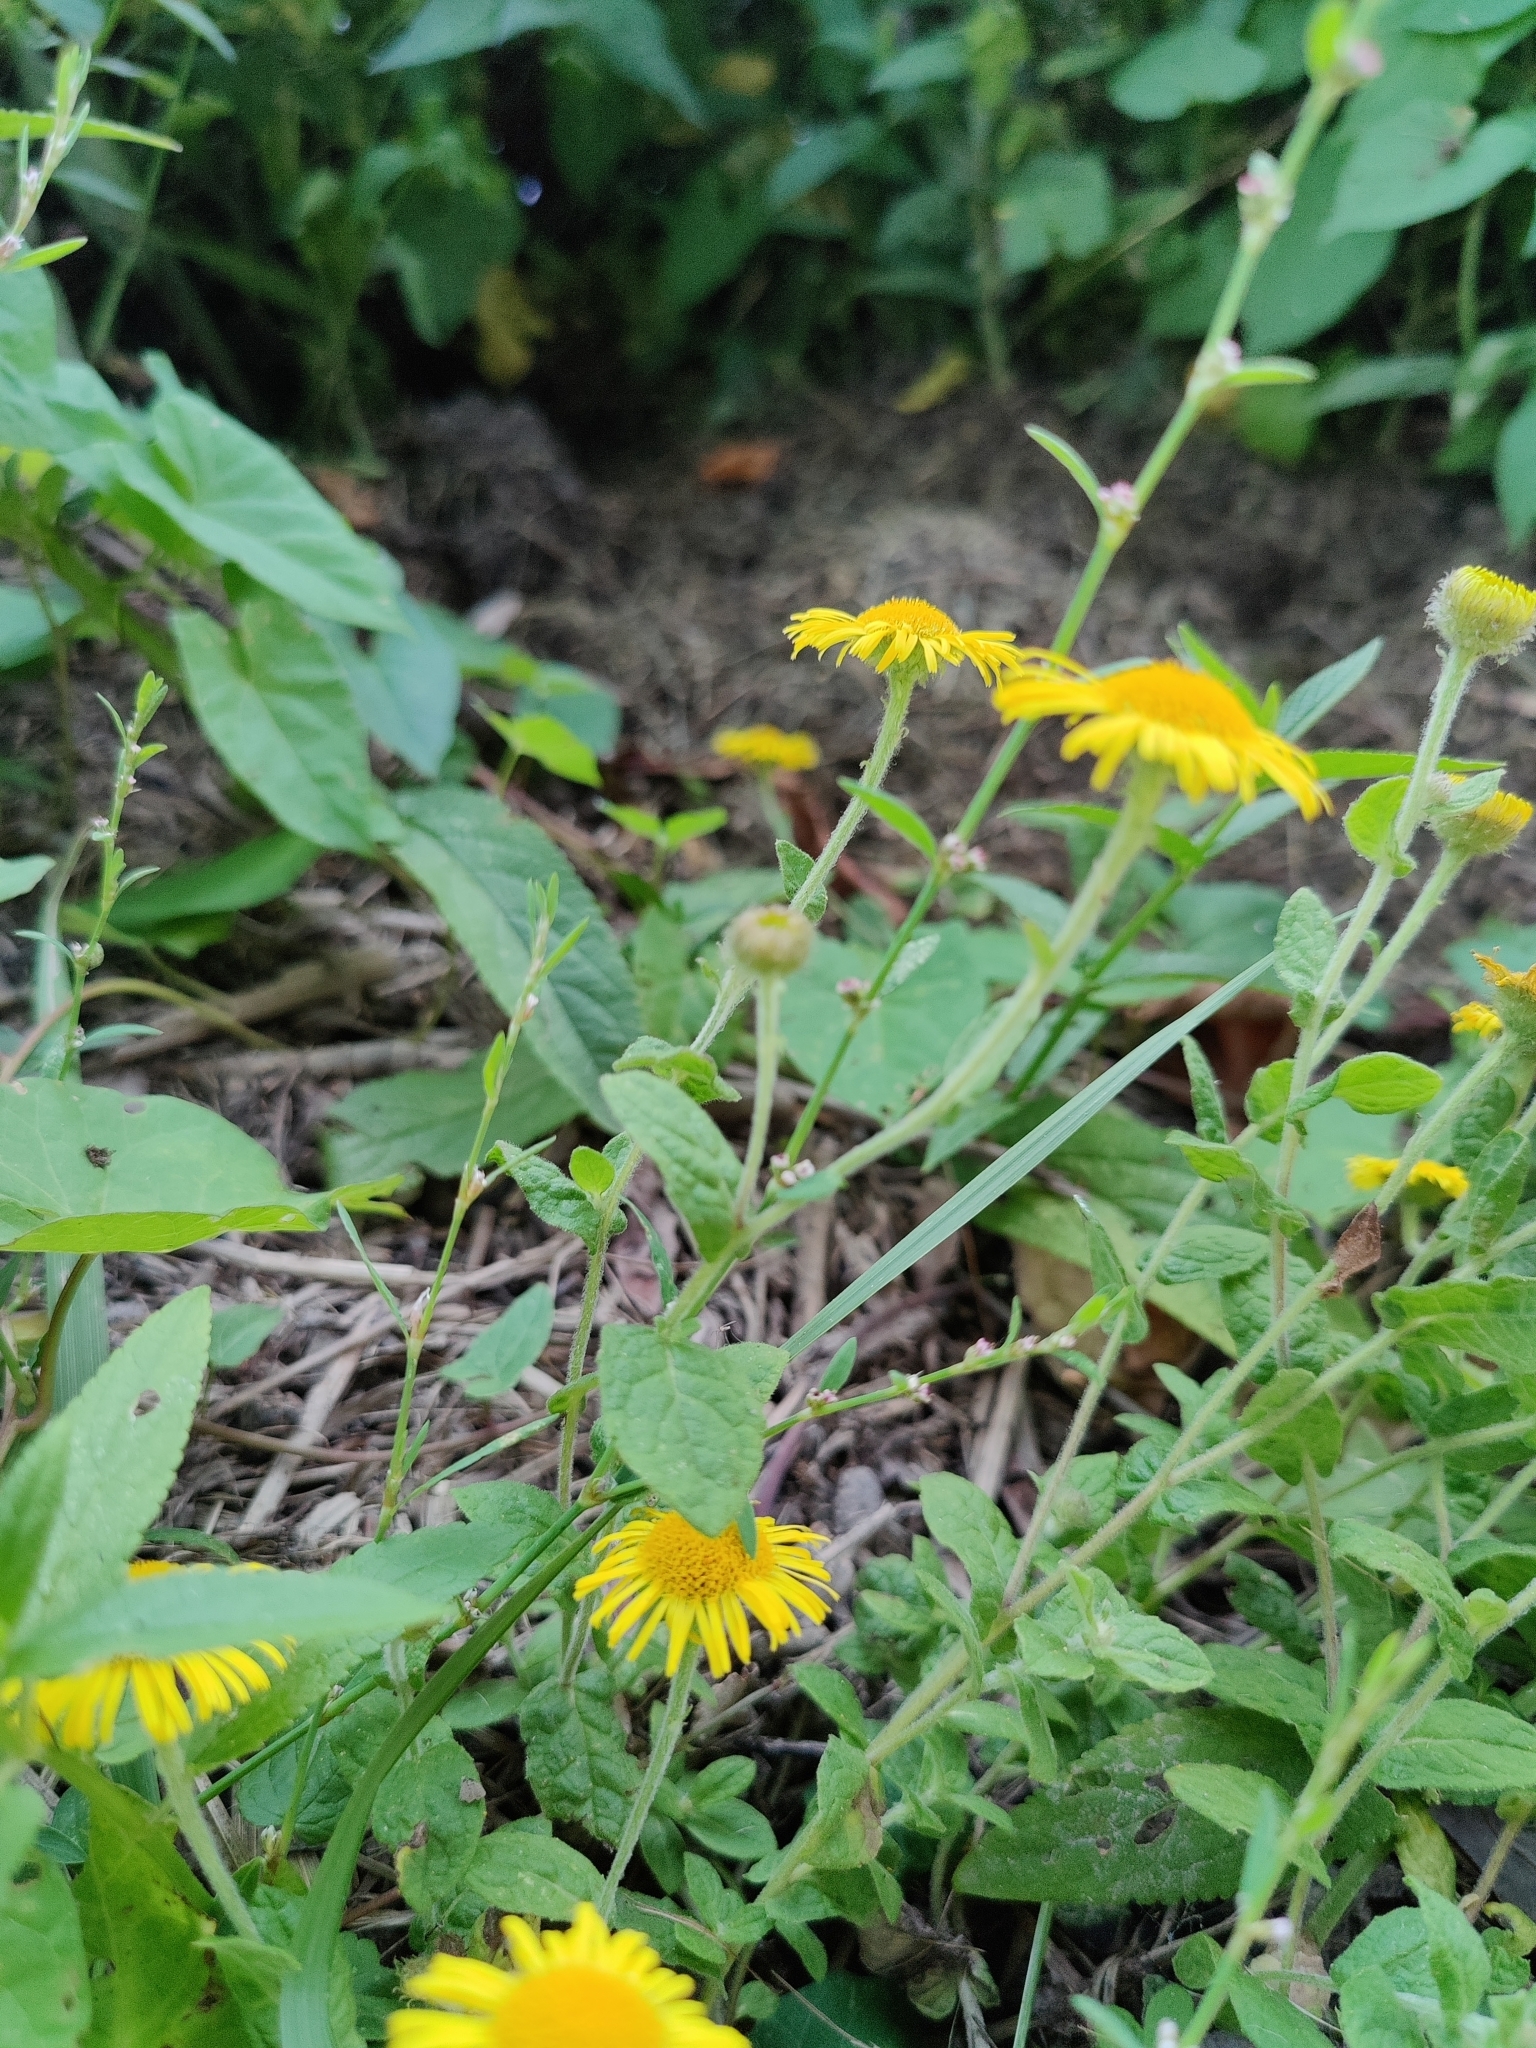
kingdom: Plantae
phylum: Tracheophyta
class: Magnoliopsida
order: Asterales
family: Asteraceae
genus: Pulicaria
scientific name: Pulicaria dysenterica
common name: Common fleabane
